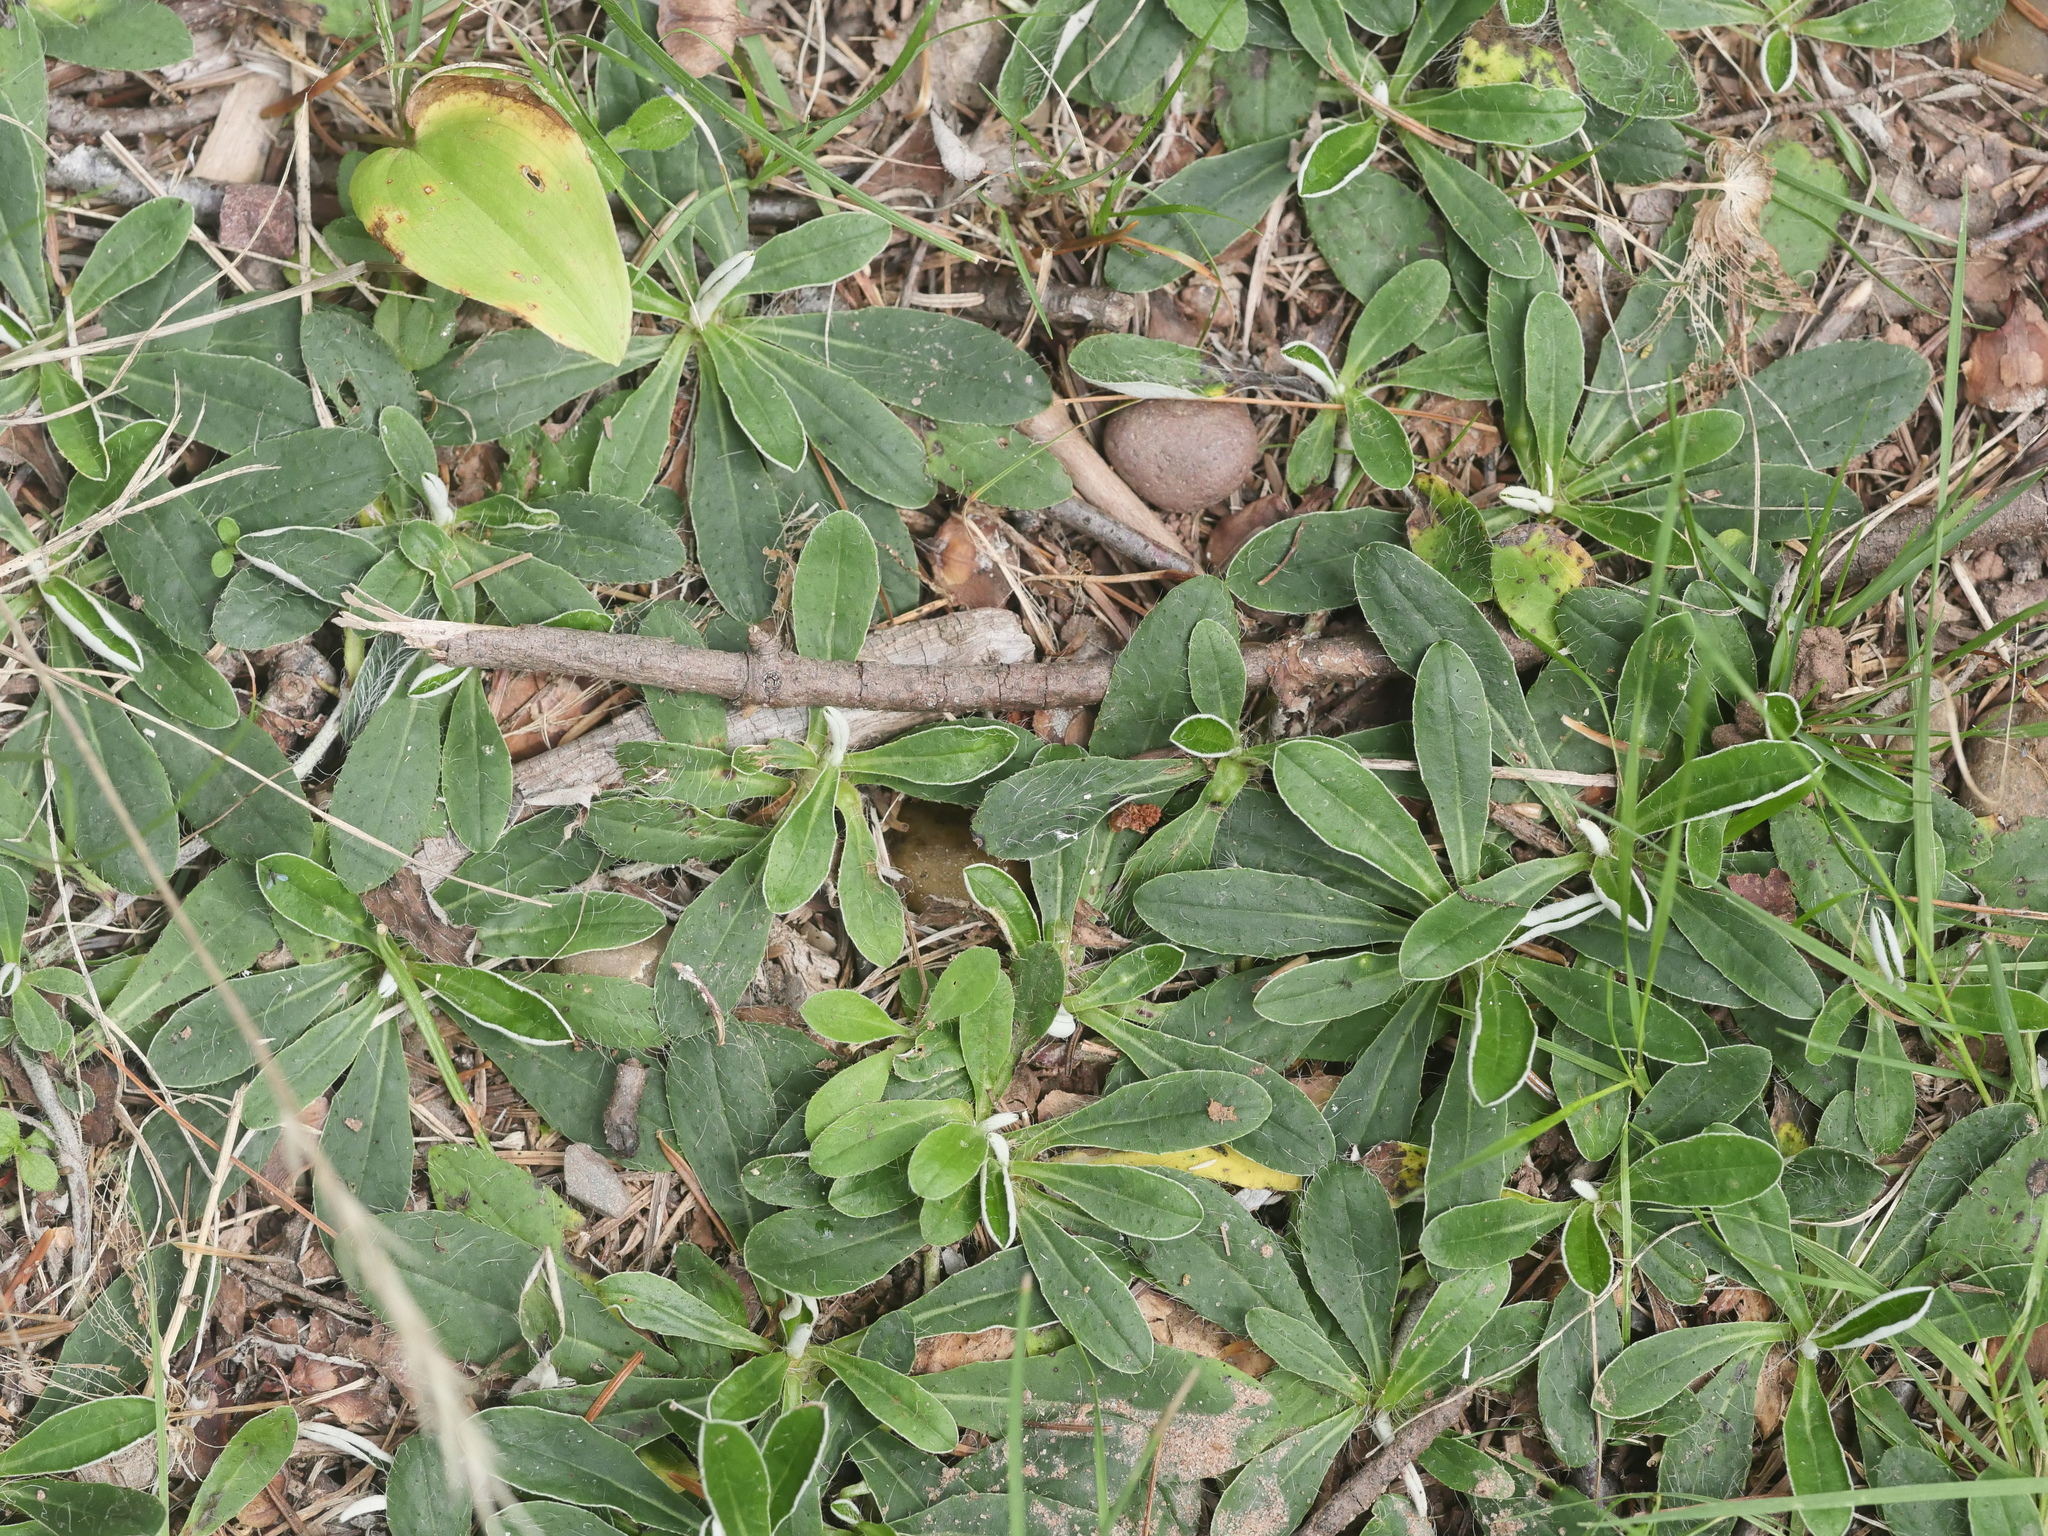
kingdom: Plantae
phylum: Tracheophyta
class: Magnoliopsida
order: Asterales
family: Asteraceae
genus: Pilosella
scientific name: Pilosella officinarum
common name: Mouse-ear hawkweed
